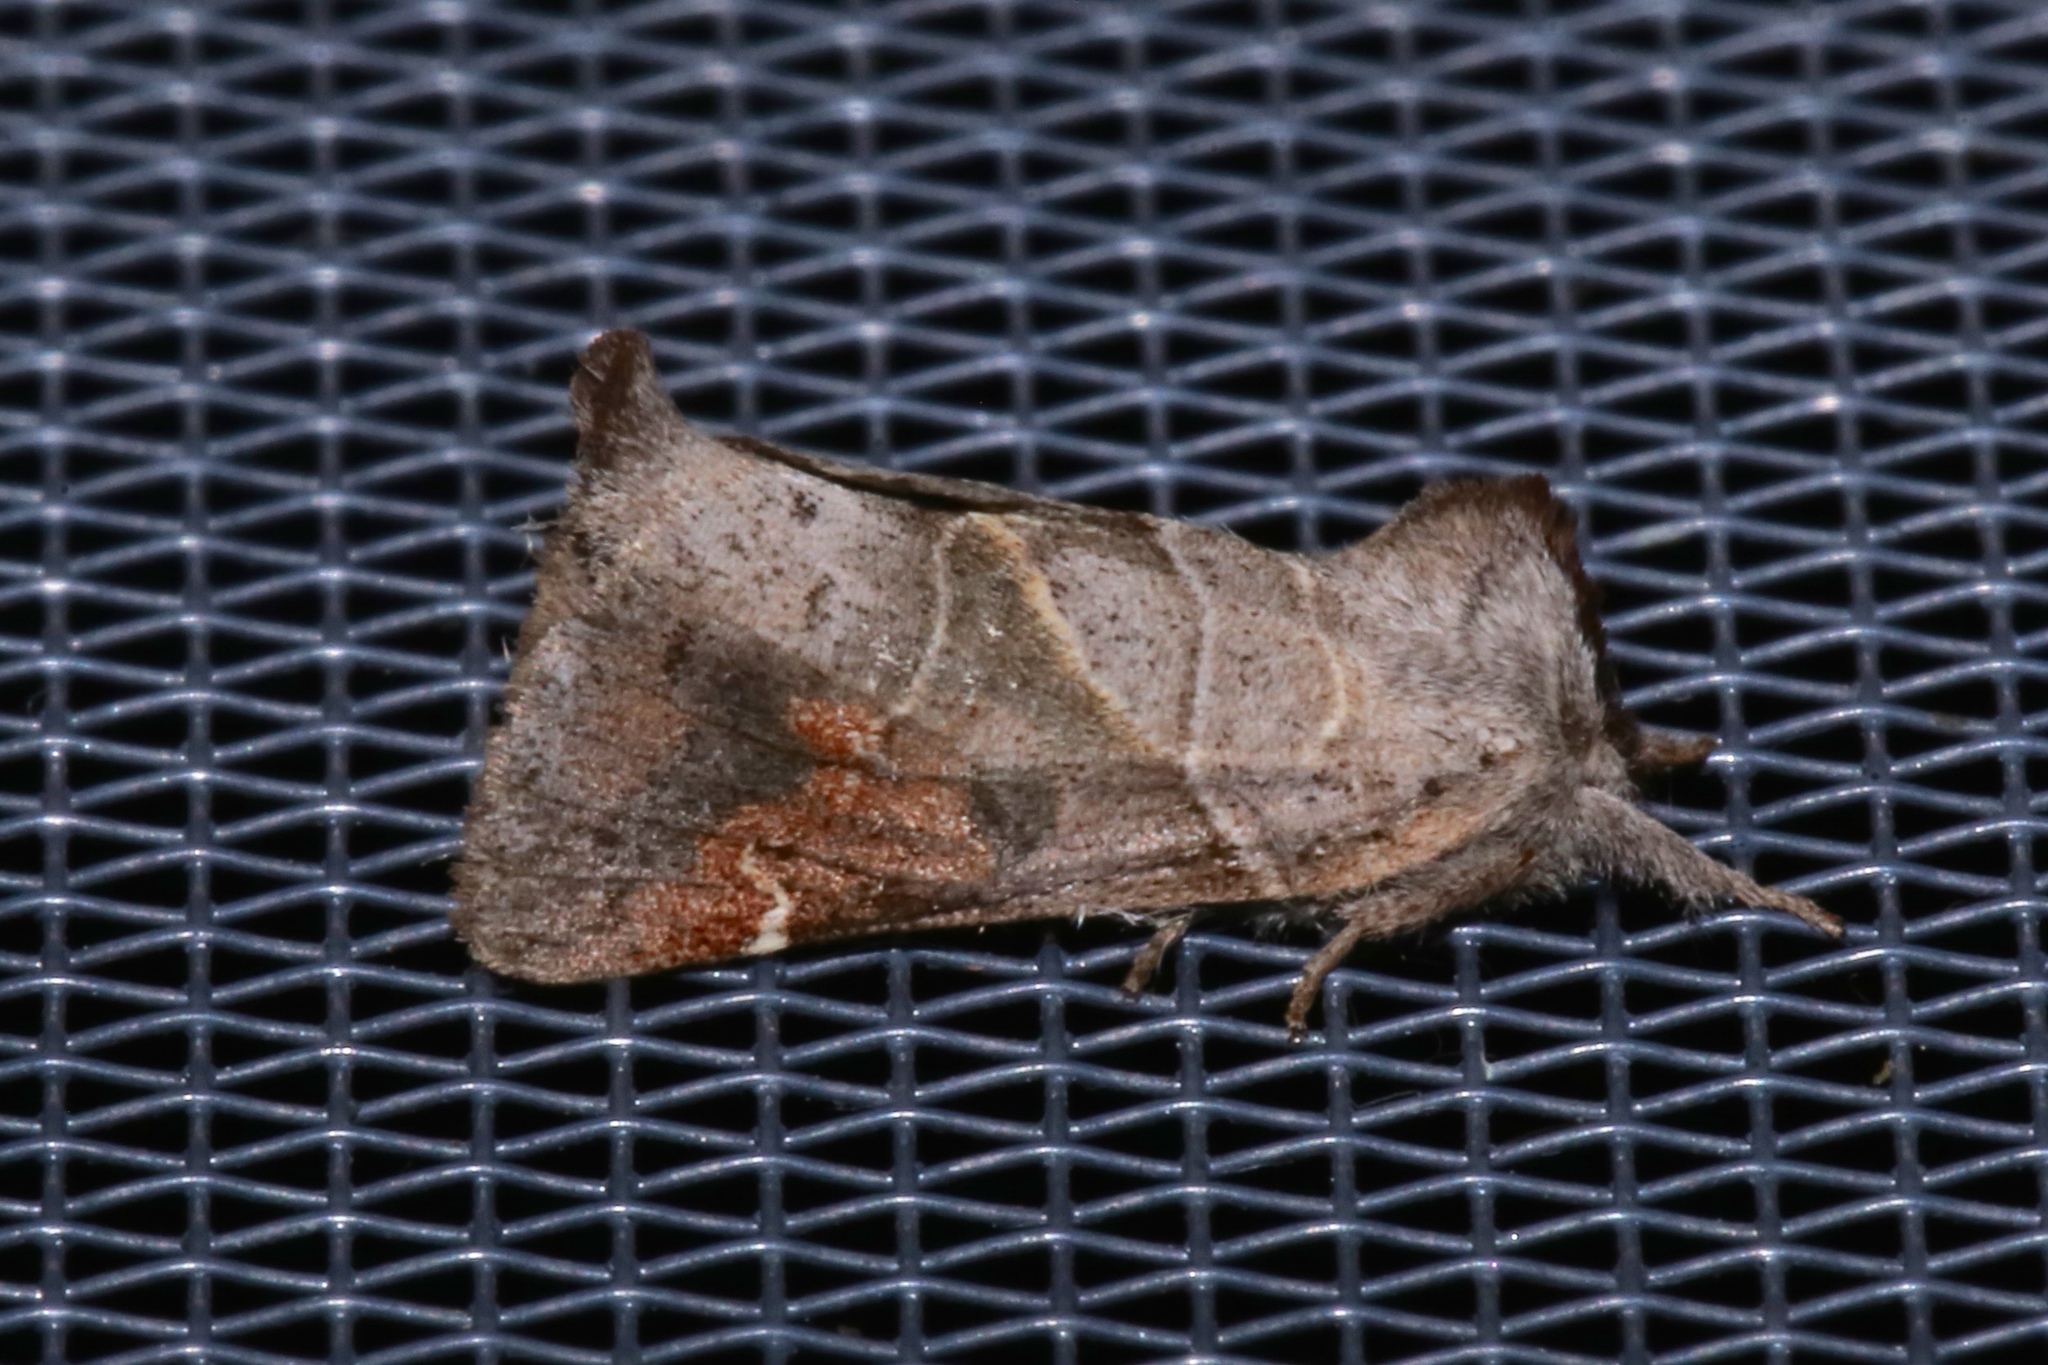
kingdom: Animalia
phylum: Arthropoda
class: Insecta
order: Lepidoptera
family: Notodontidae
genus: Clostera
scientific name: Clostera apicalis
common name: Apical prominent
